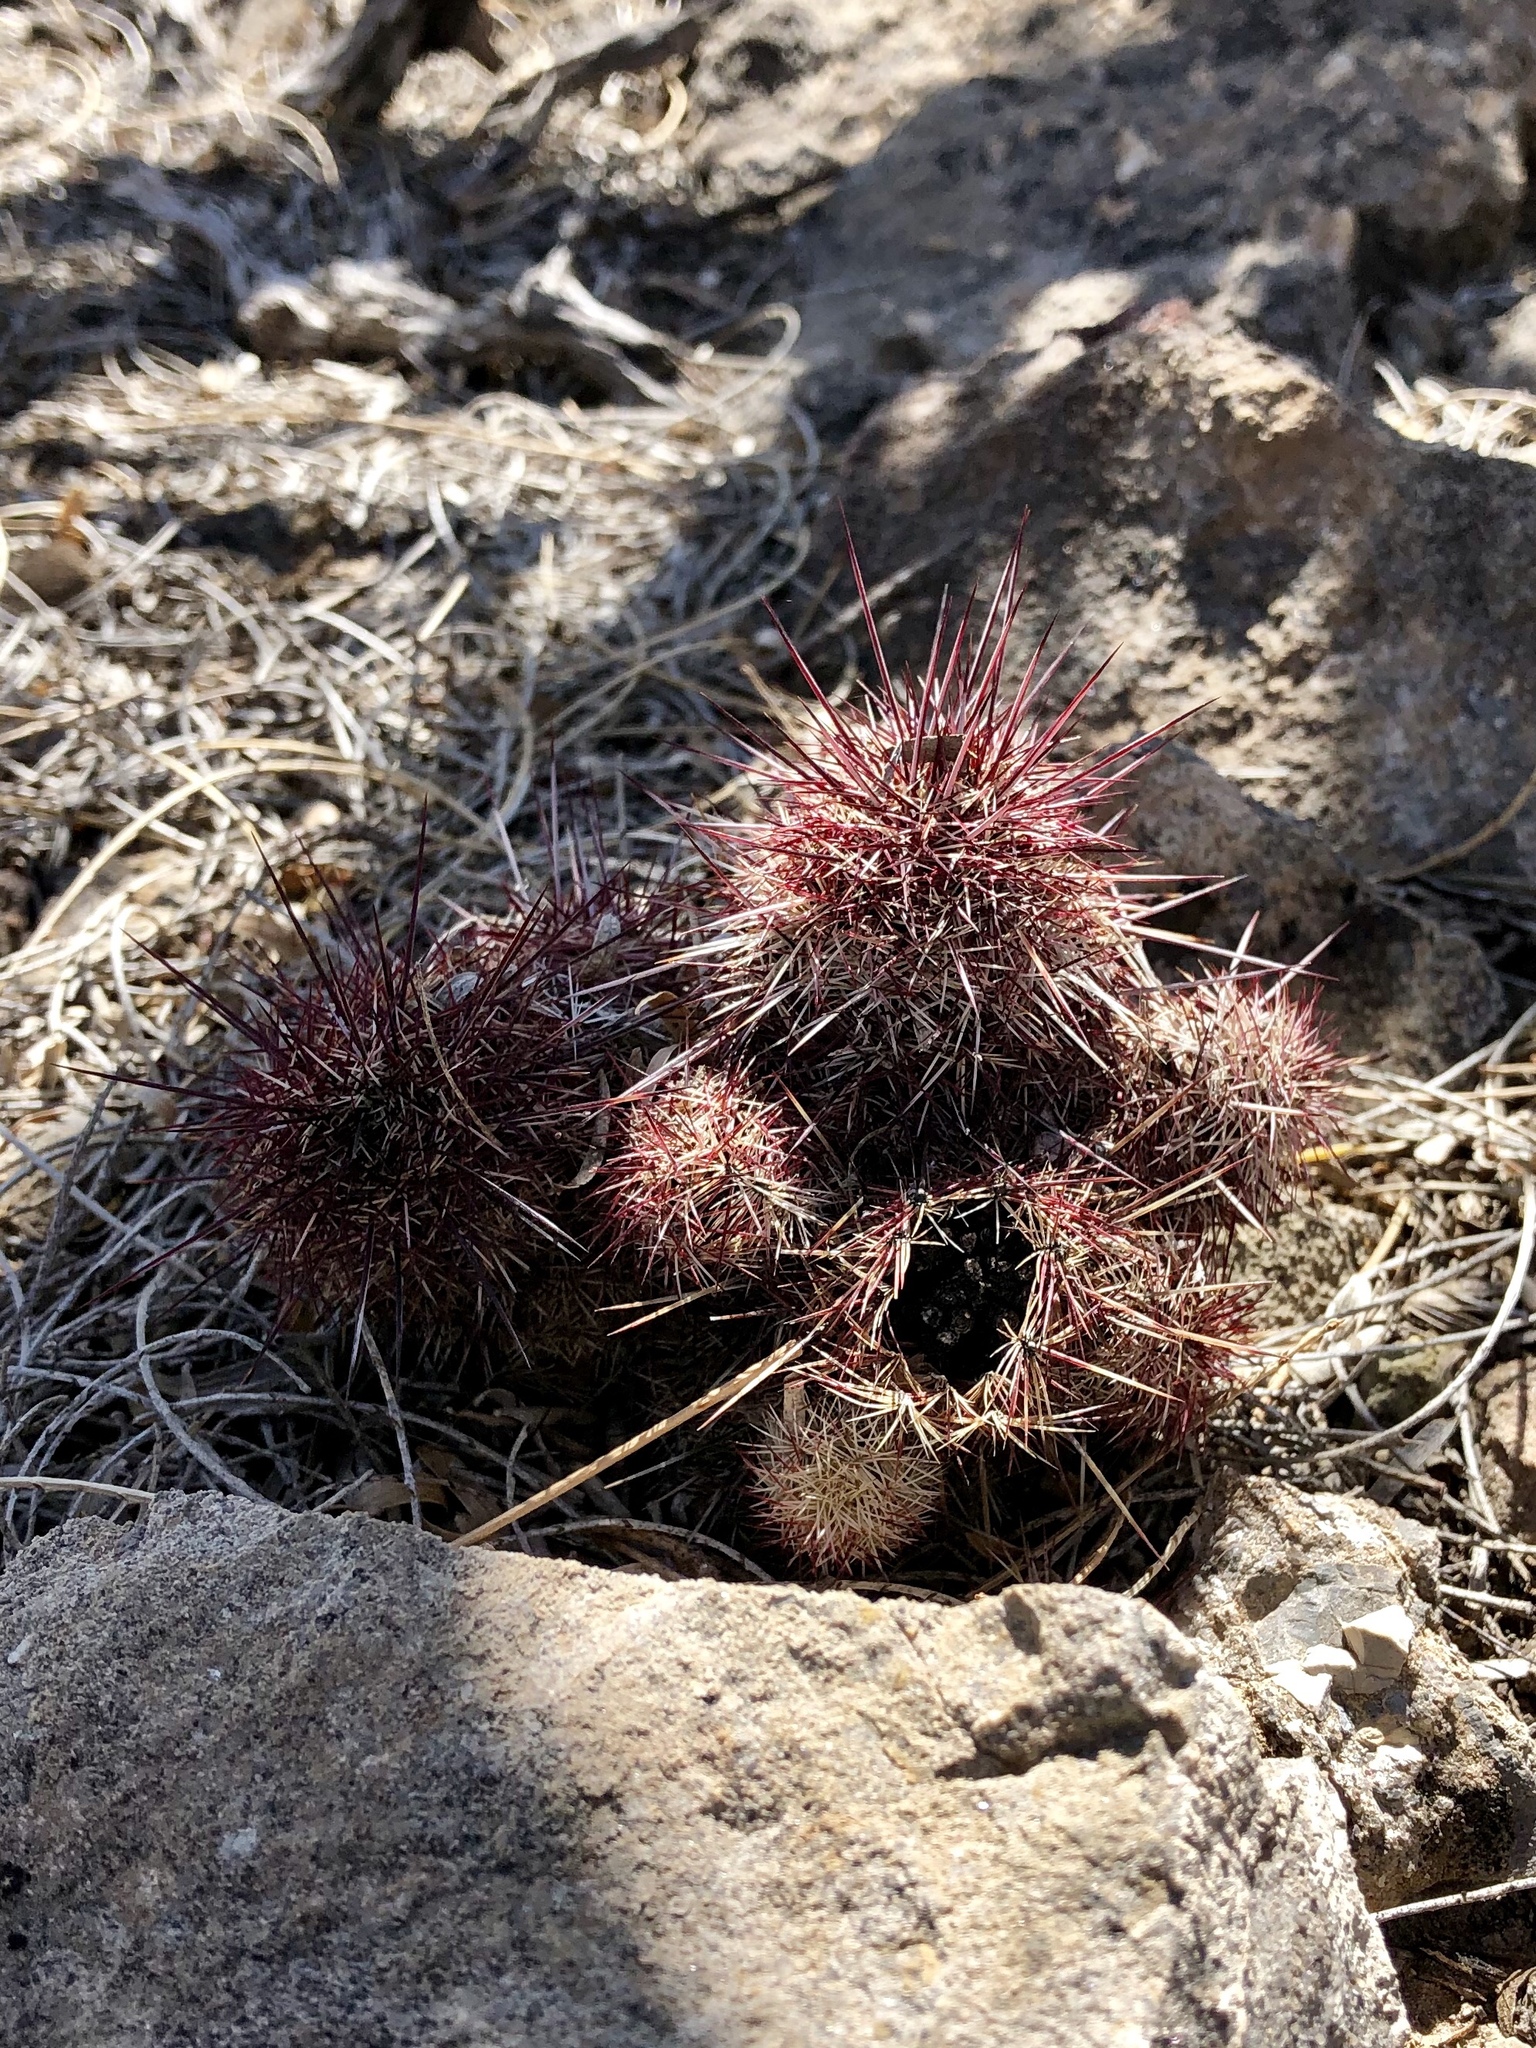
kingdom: Plantae
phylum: Tracheophyta
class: Magnoliopsida
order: Caryophyllales
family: Cactaceae
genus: Echinocereus
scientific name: Echinocereus viridiflorus
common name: Nylon hedgehog cactus
